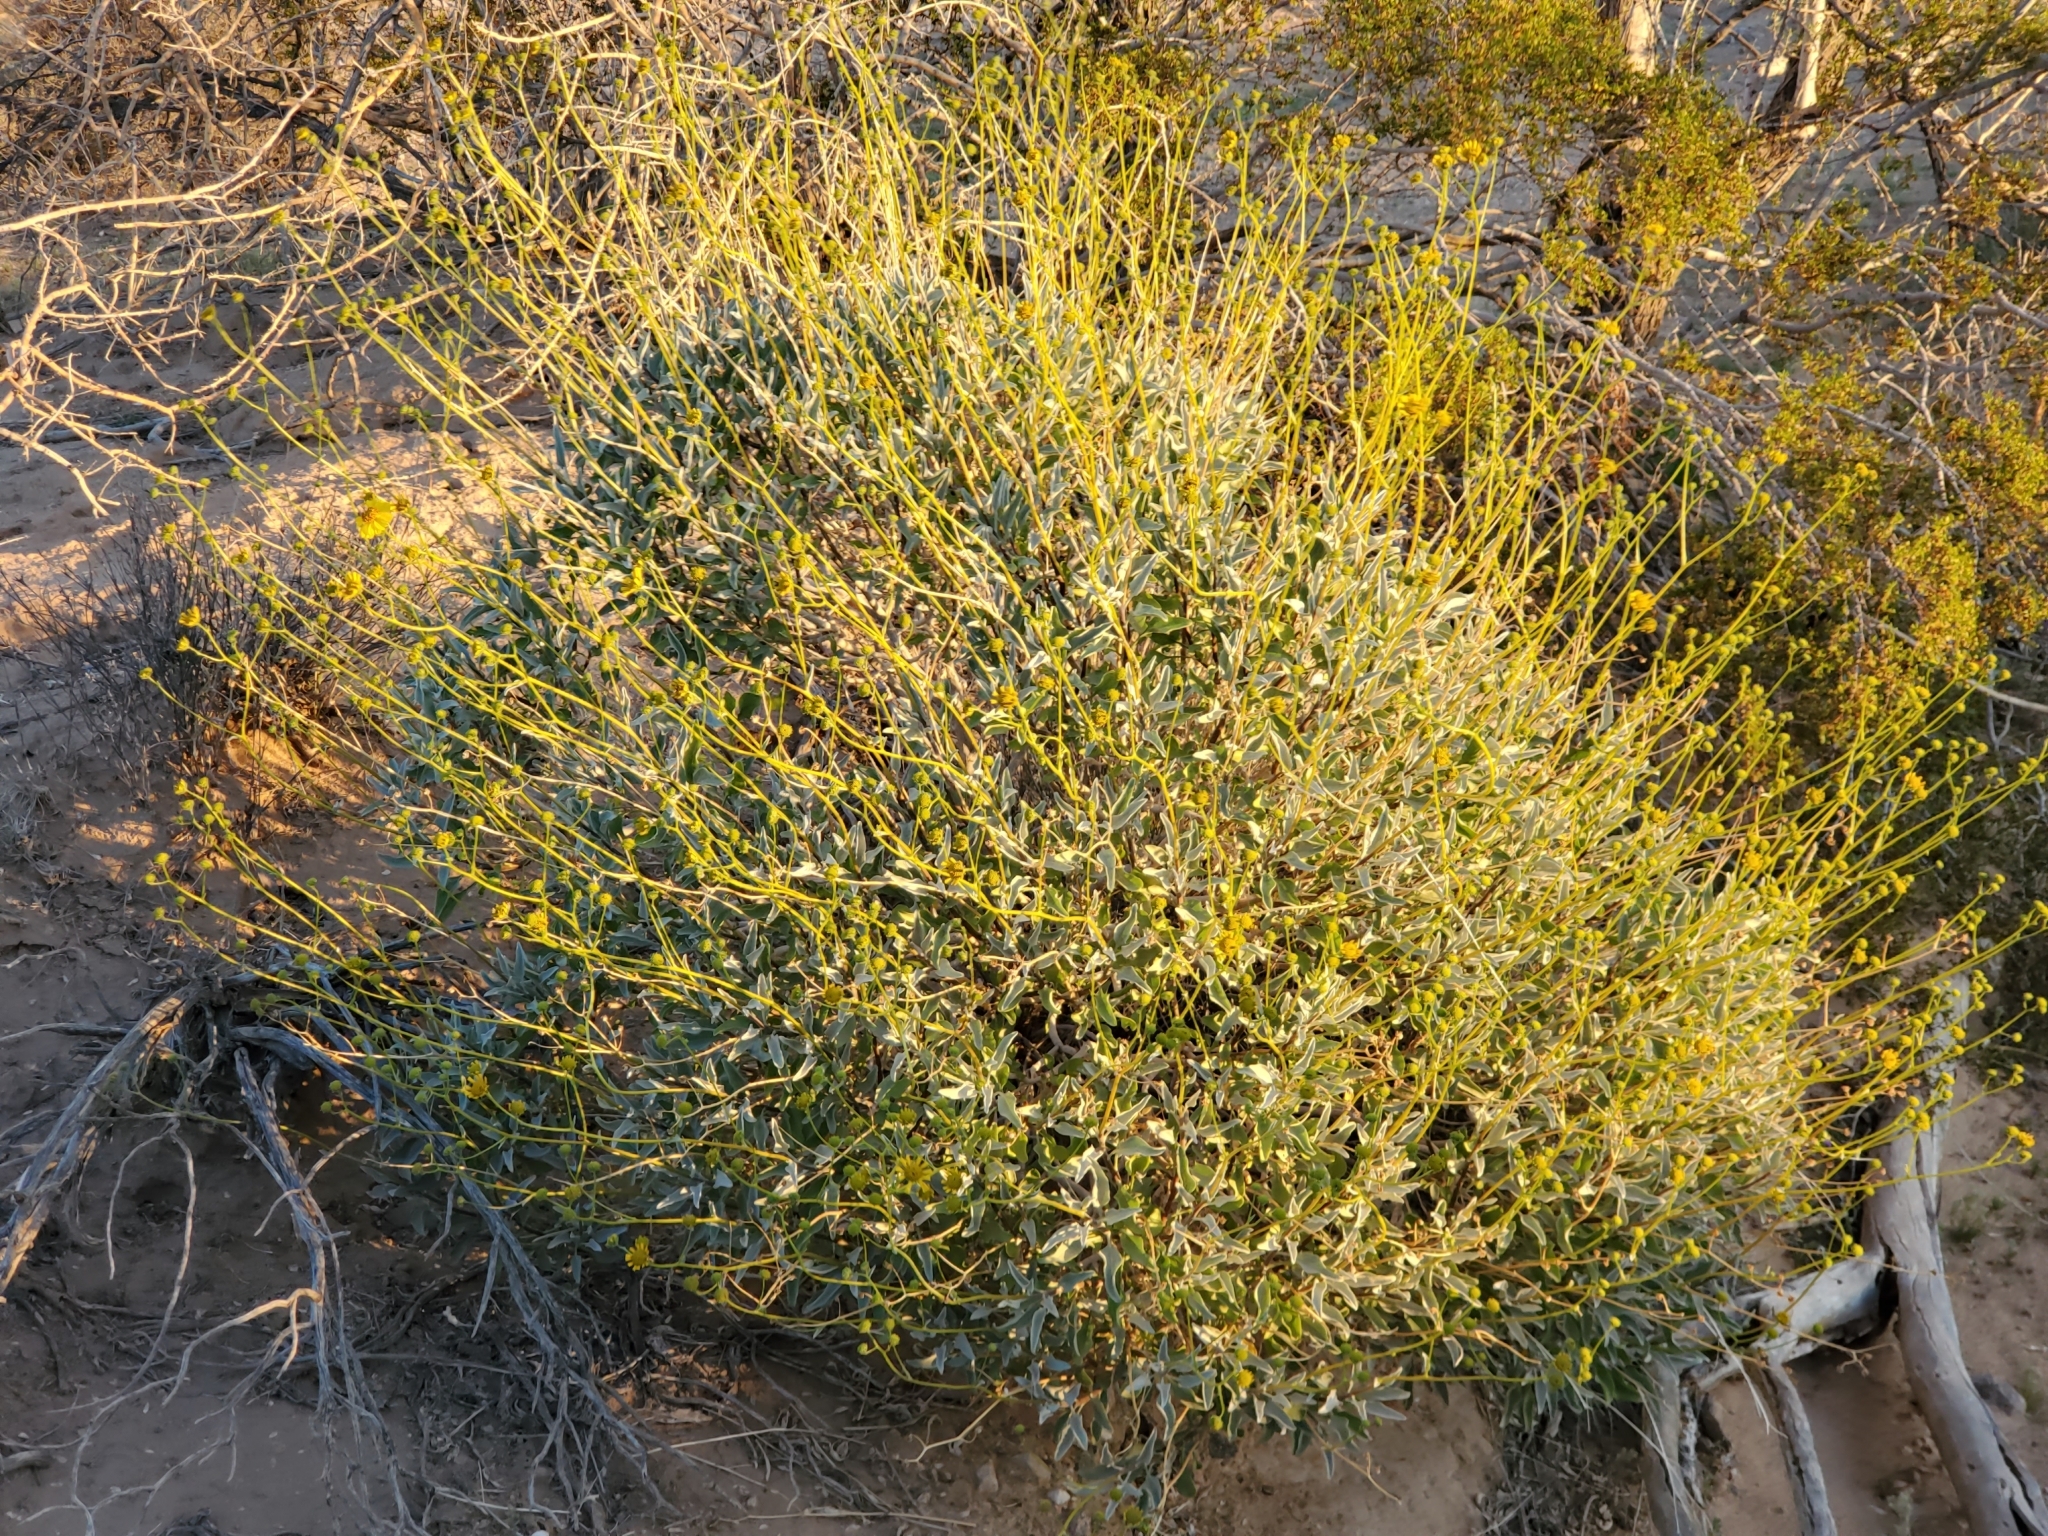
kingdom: Plantae
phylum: Tracheophyta
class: Magnoliopsida
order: Asterales
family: Asteraceae
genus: Encelia
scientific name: Encelia farinosa
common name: Brittlebush
